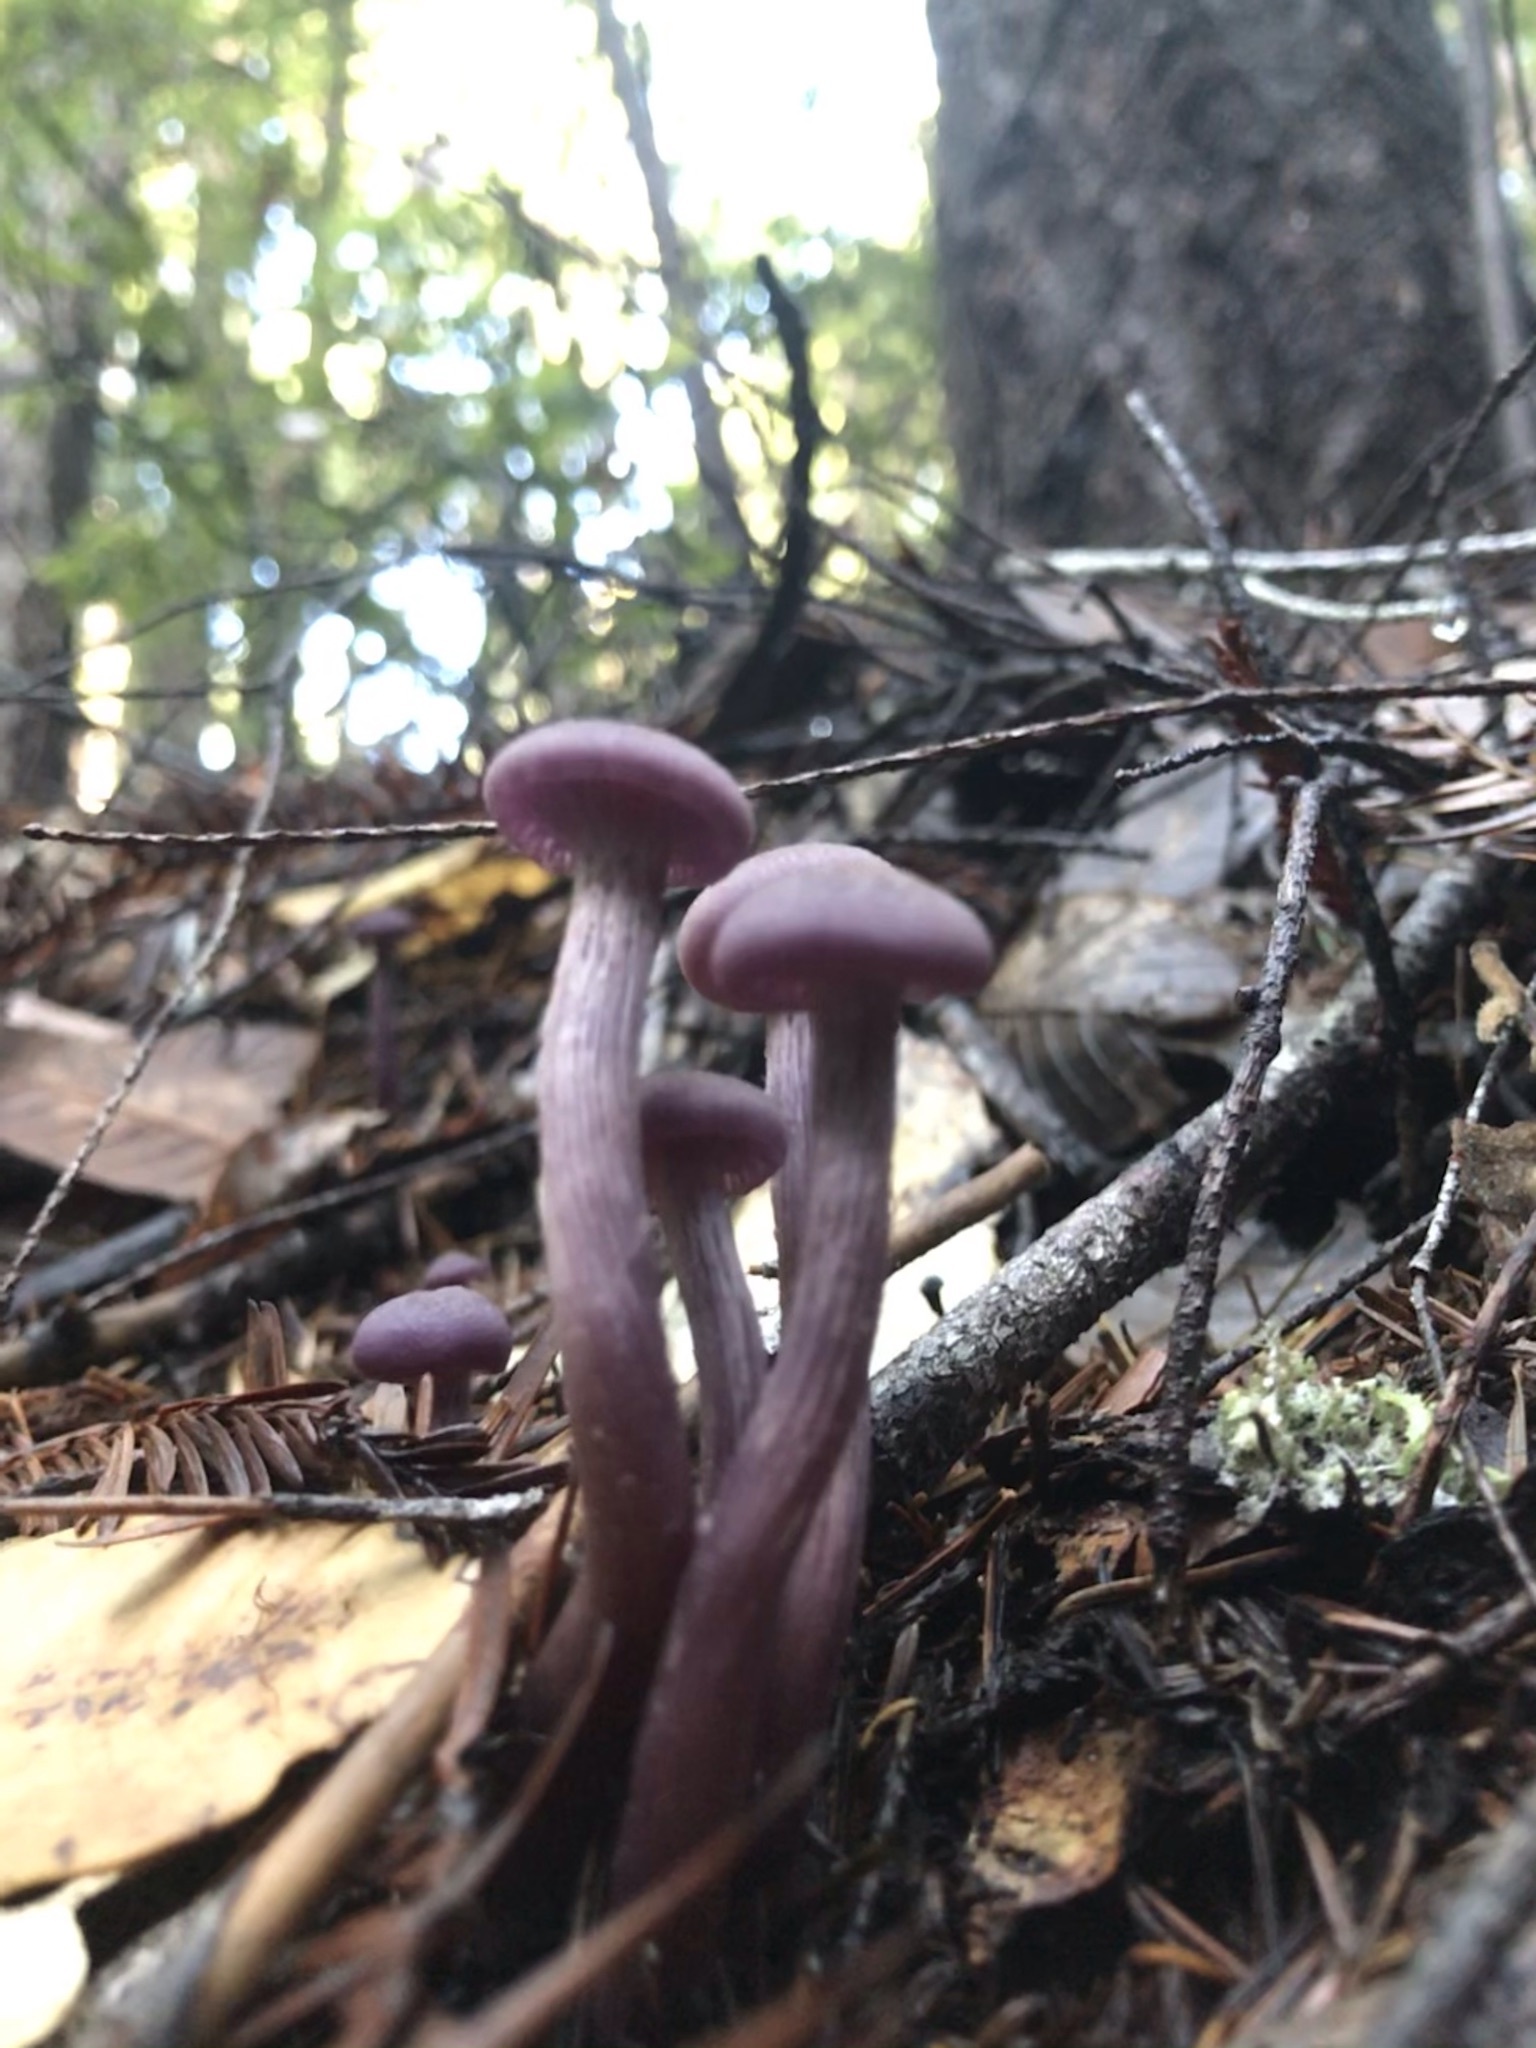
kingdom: Fungi
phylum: Basidiomycota
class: Agaricomycetes
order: Agaricales
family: Hydnangiaceae
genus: Laccaria
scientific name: Laccaria amethysteo-occidentalis
